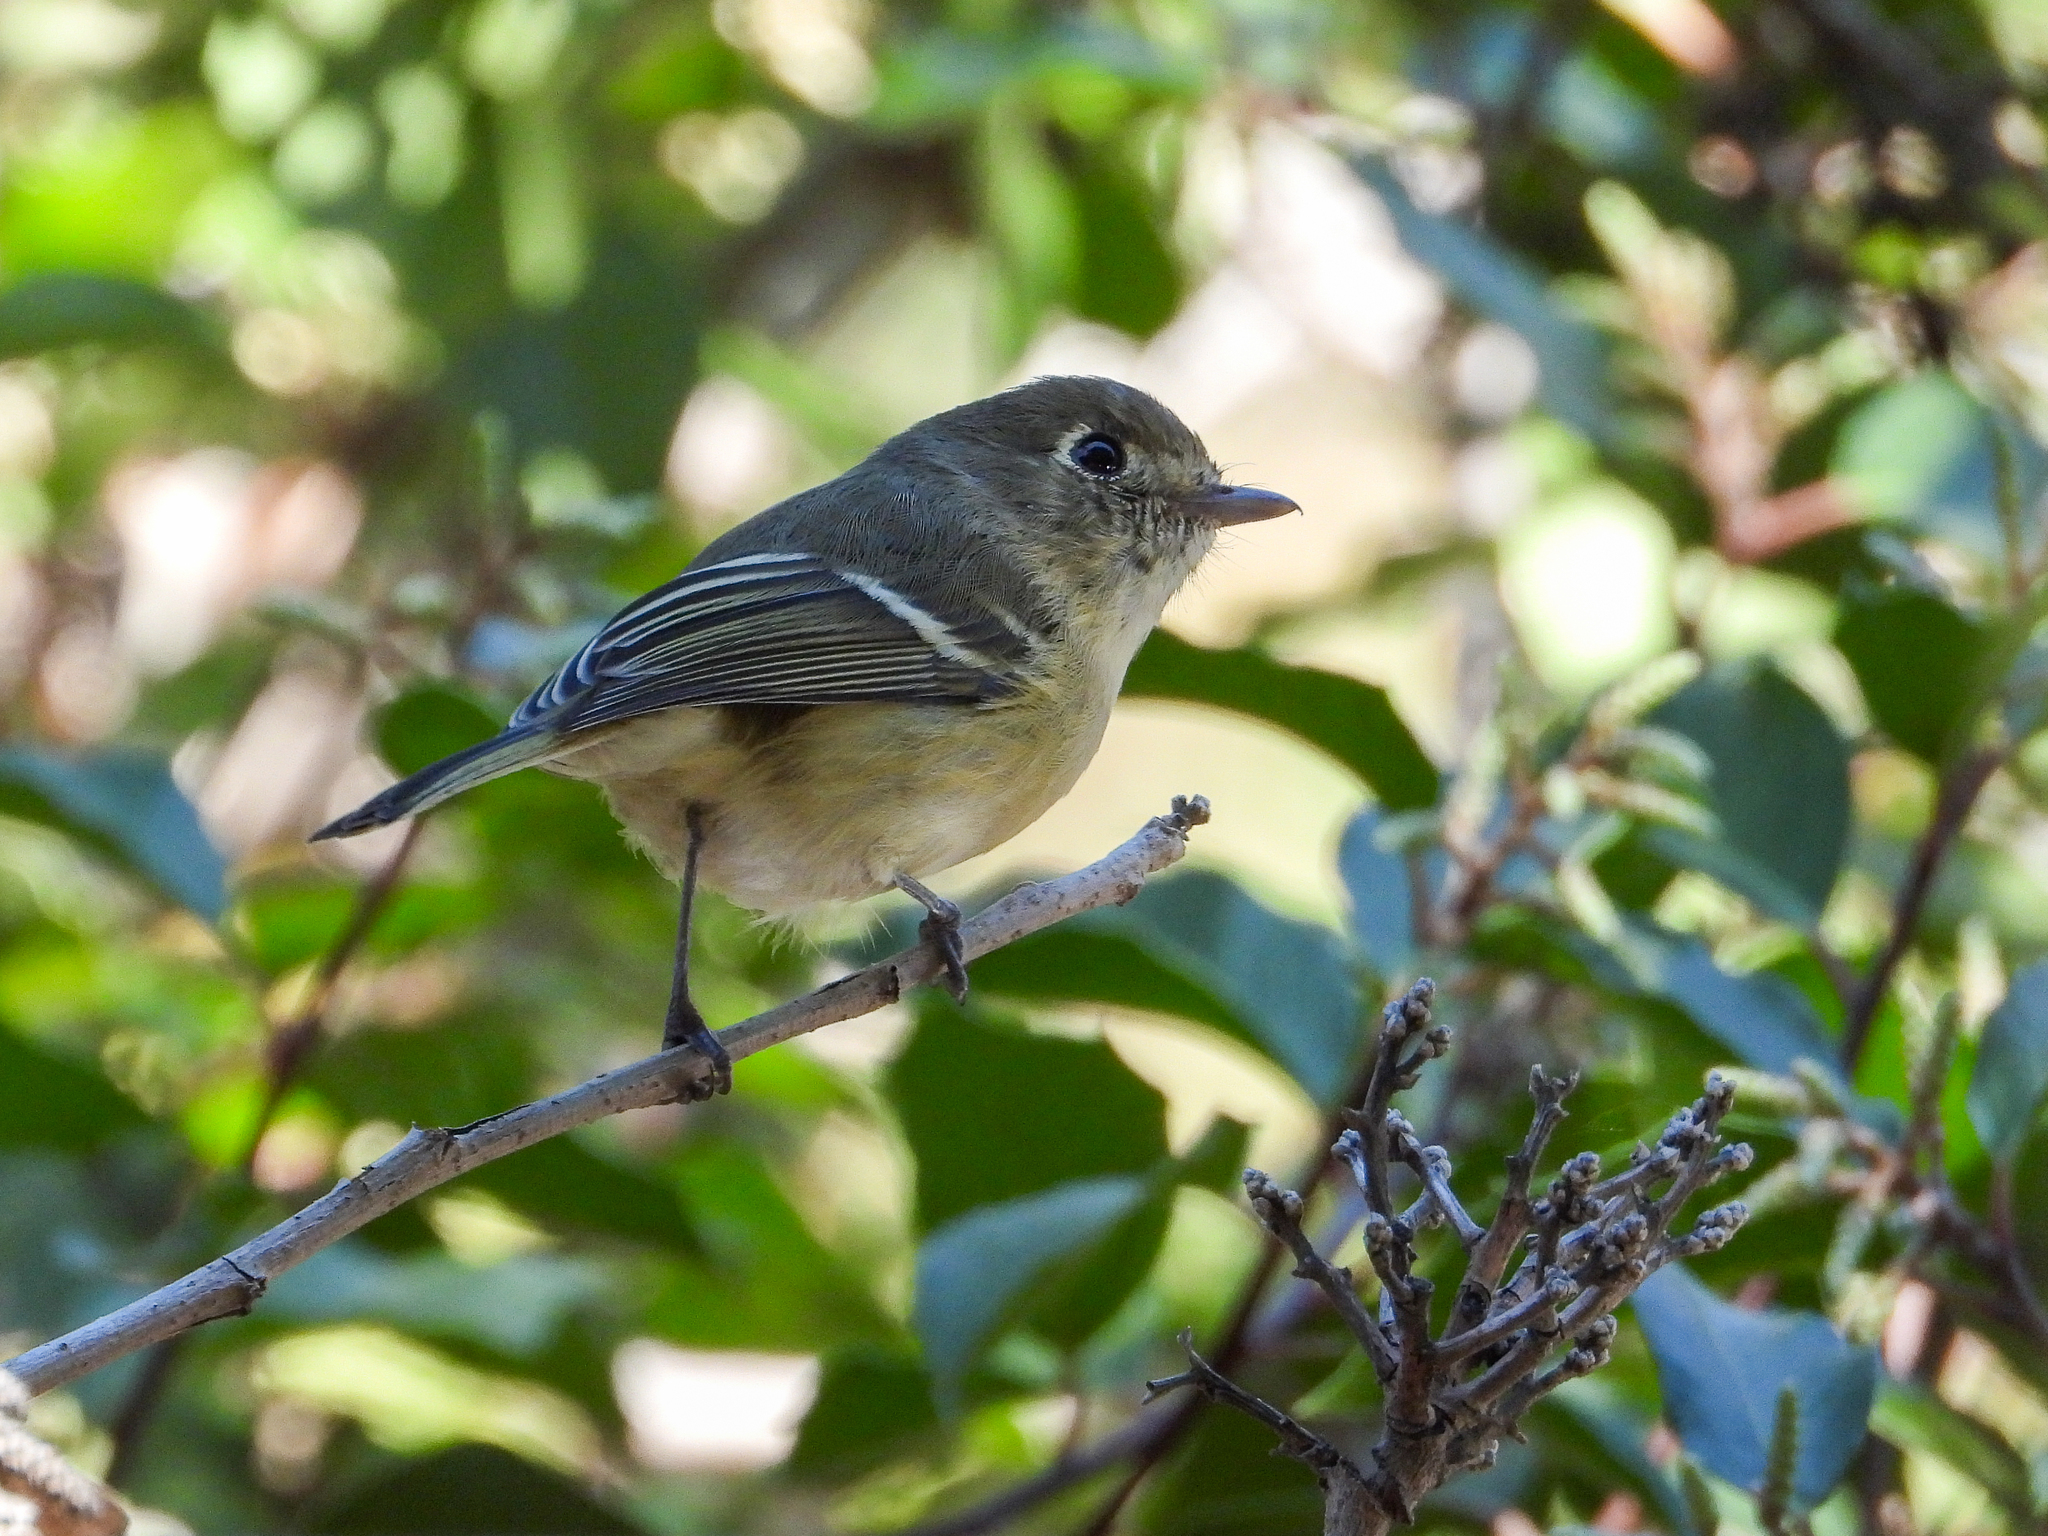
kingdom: Animalia
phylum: Chordata
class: Aves
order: Passeriformes
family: Vireonidae
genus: Vireo
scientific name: Vireo huttoni
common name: Hutton's vireo
